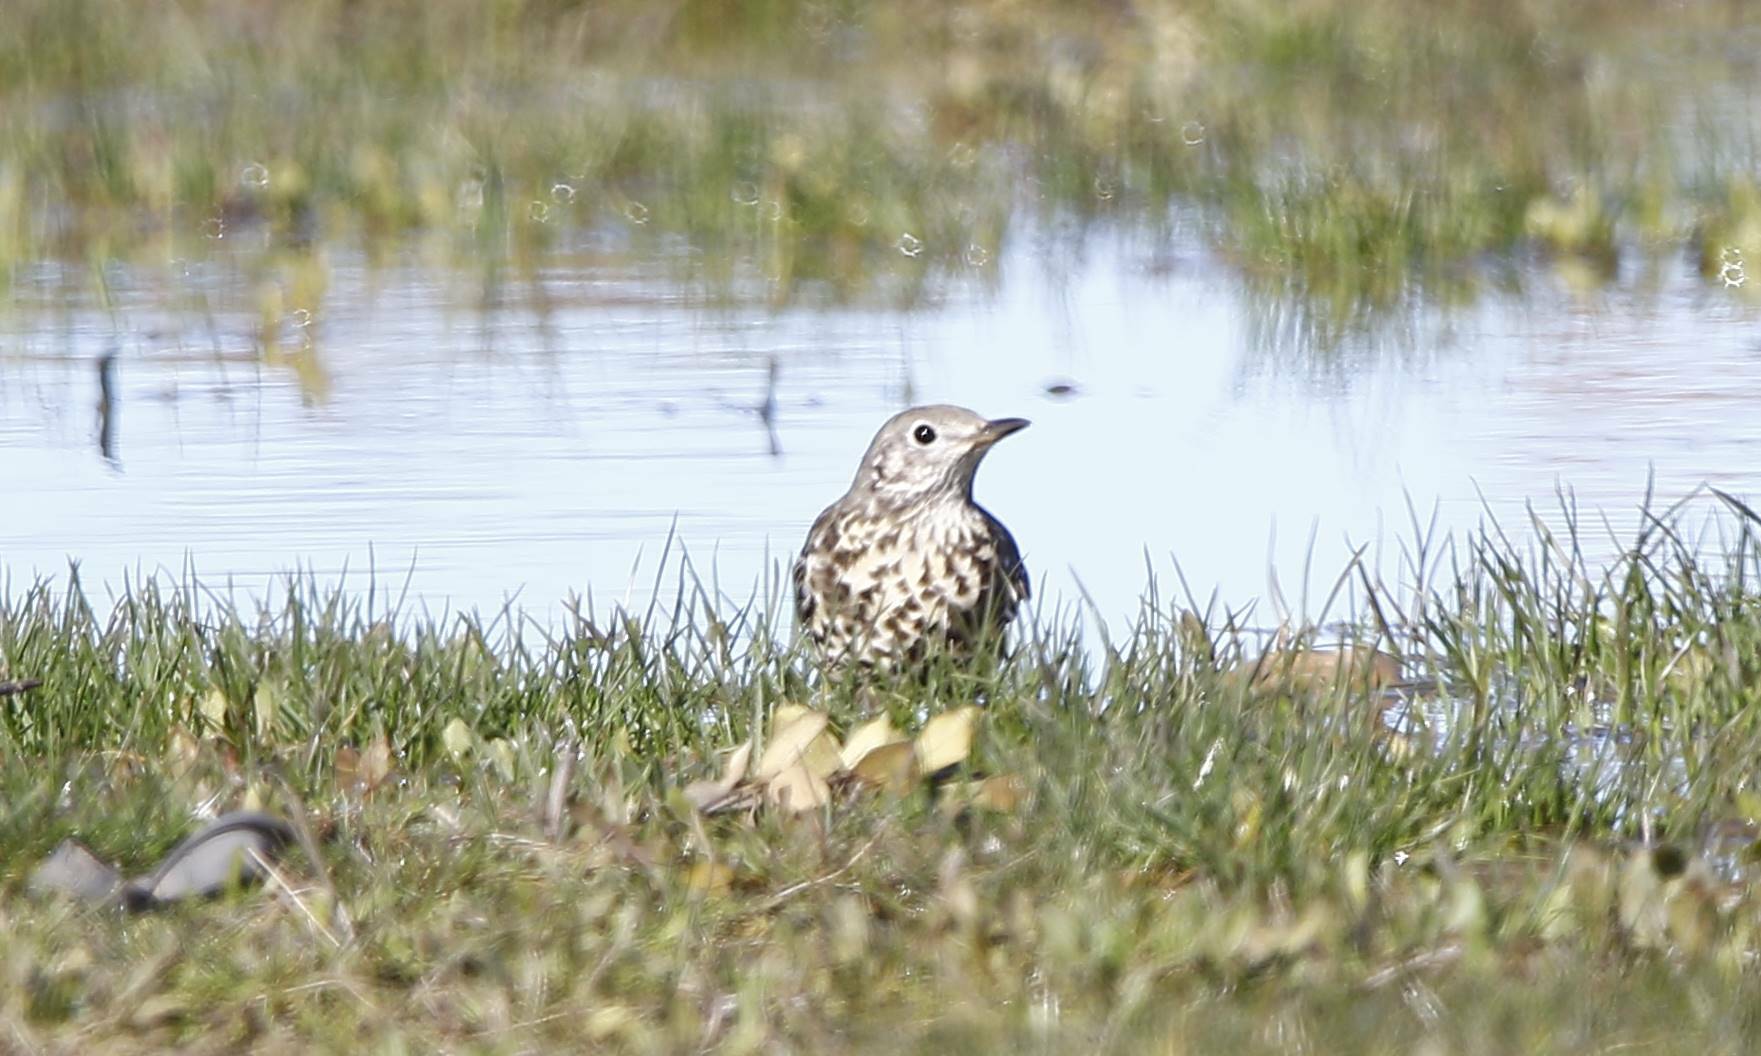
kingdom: Animalia
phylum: Chordata
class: Aves
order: Passeriformes
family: Turdidae
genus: Turdus
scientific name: Turdus viscivorus
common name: Mistle thrush
